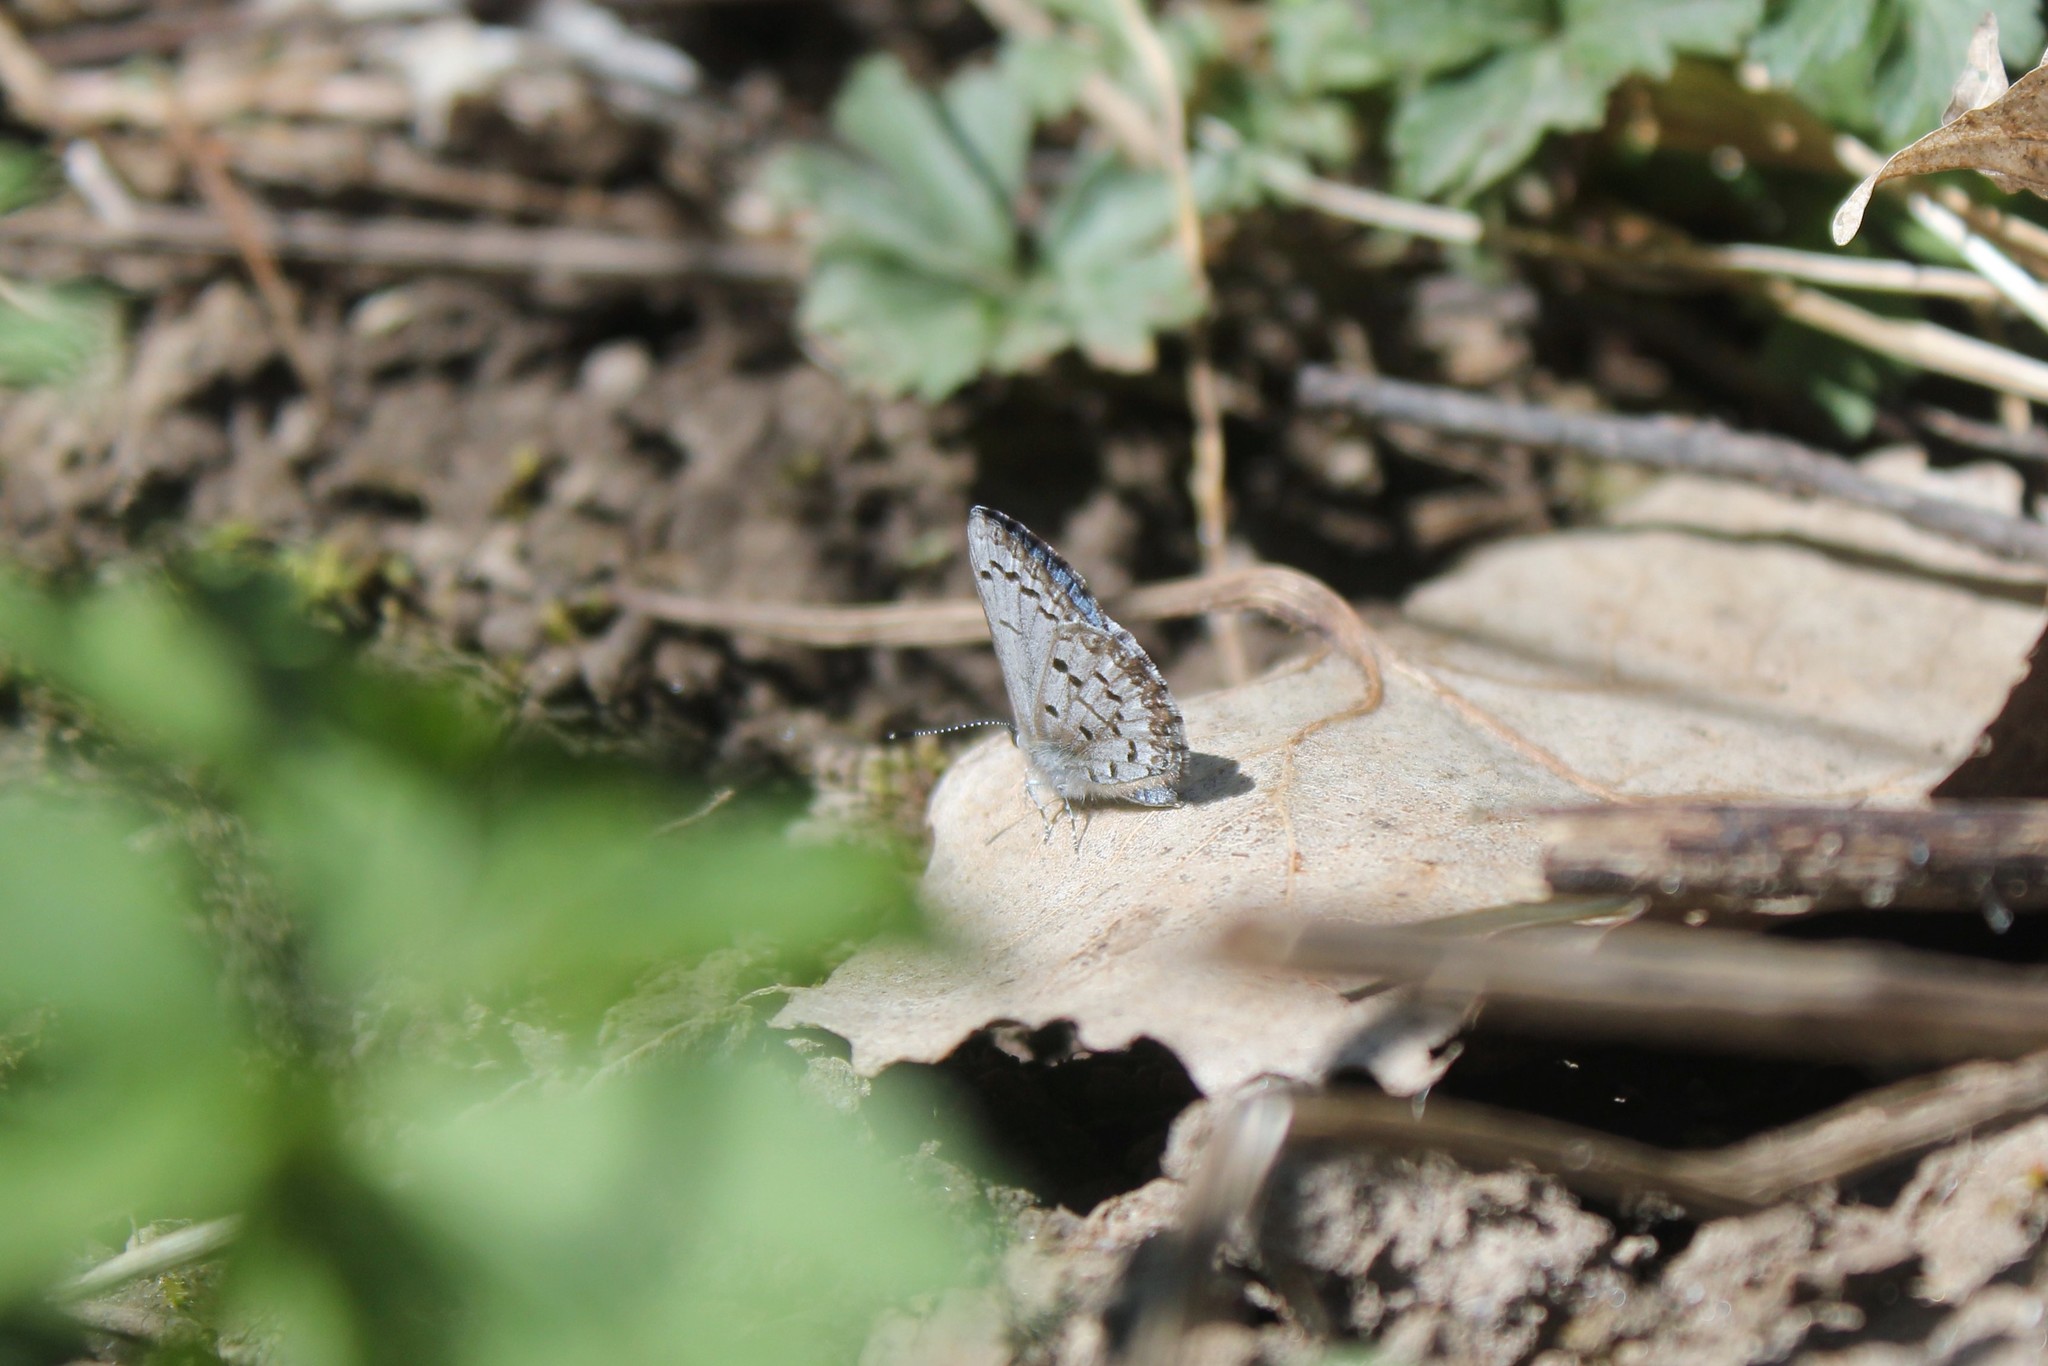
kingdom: Animalia
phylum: Arthropoda
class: Insecta
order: Lepidoptera
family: Lycaenidae
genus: Celastrina
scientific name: Celastrina lucia
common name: Lucia azure
